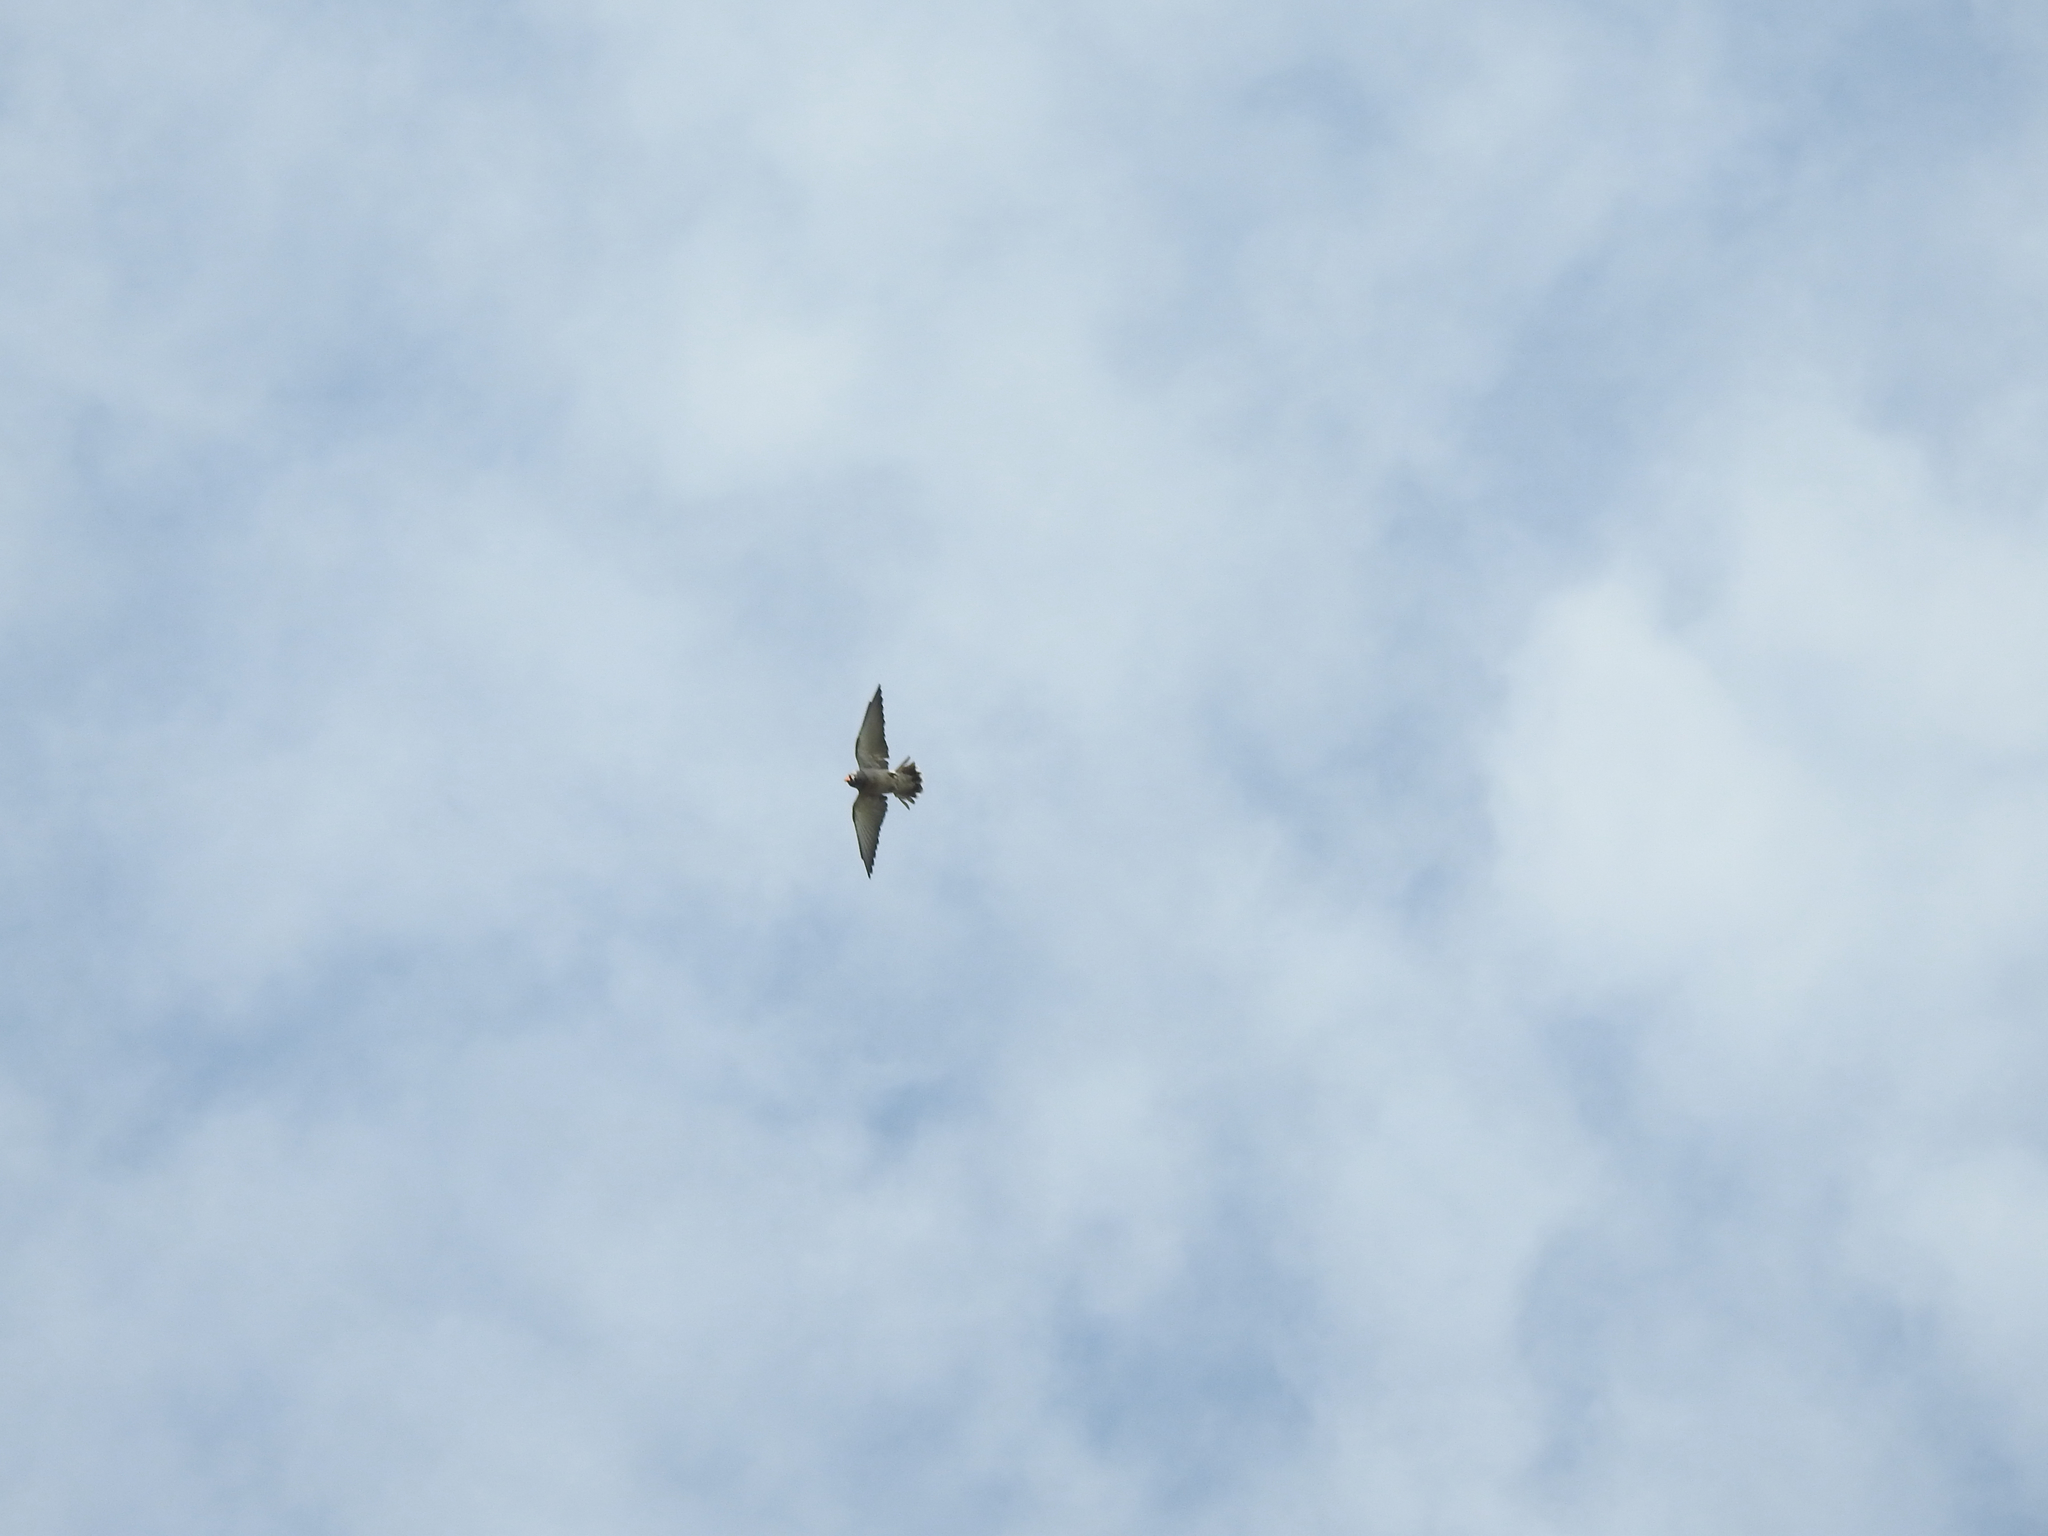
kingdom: Animalia
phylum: Chordata
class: Aves
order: Passeriformes
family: Artamidae
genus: Artamus
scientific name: Artamus fuscus
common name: Ashy woodswallow
